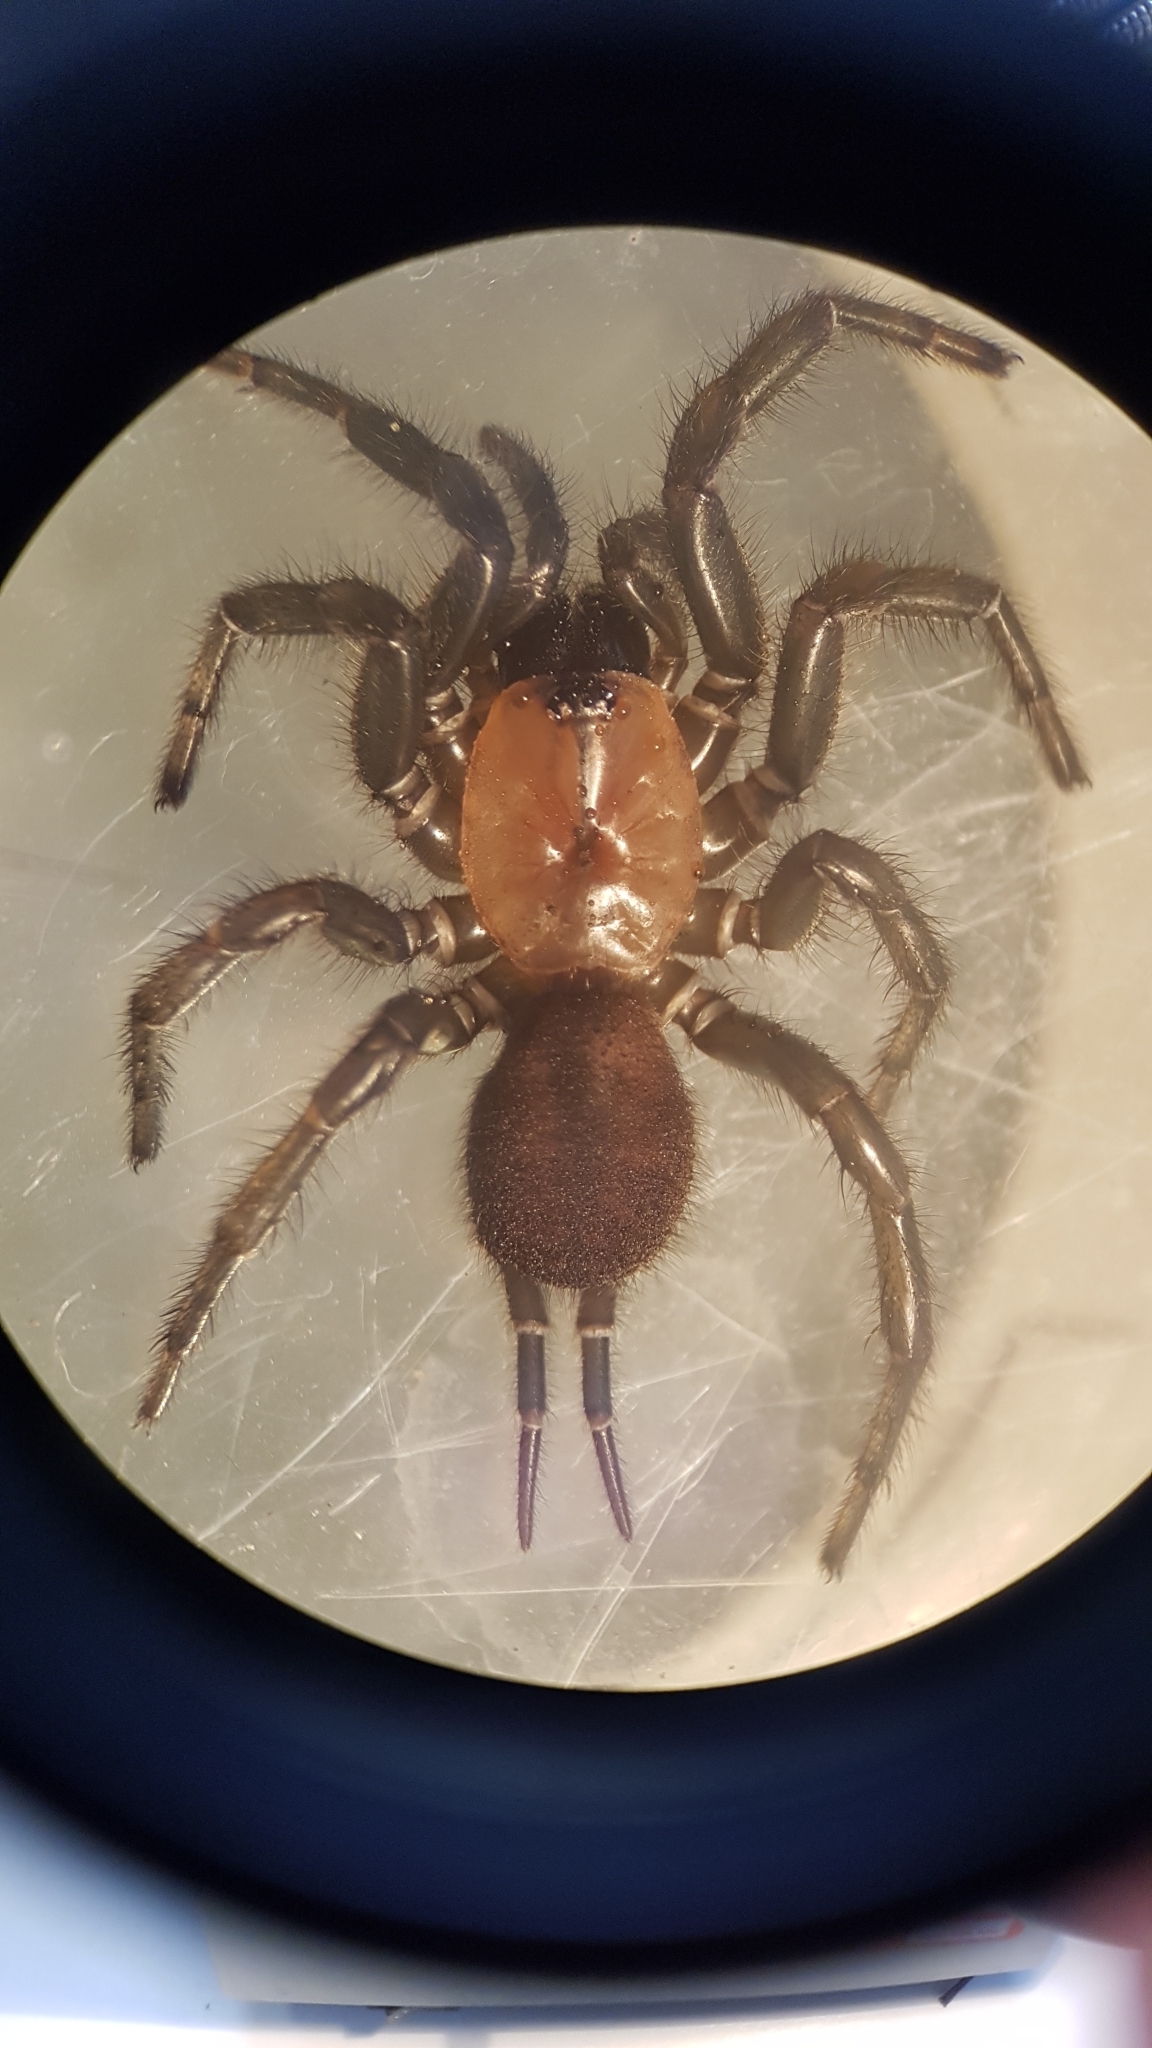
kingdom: Animalia
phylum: Arthropoda
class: Arachnida
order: Araneae
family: Porrhothelidae
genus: Porrhothele
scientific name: Porrhothele antipodiana
